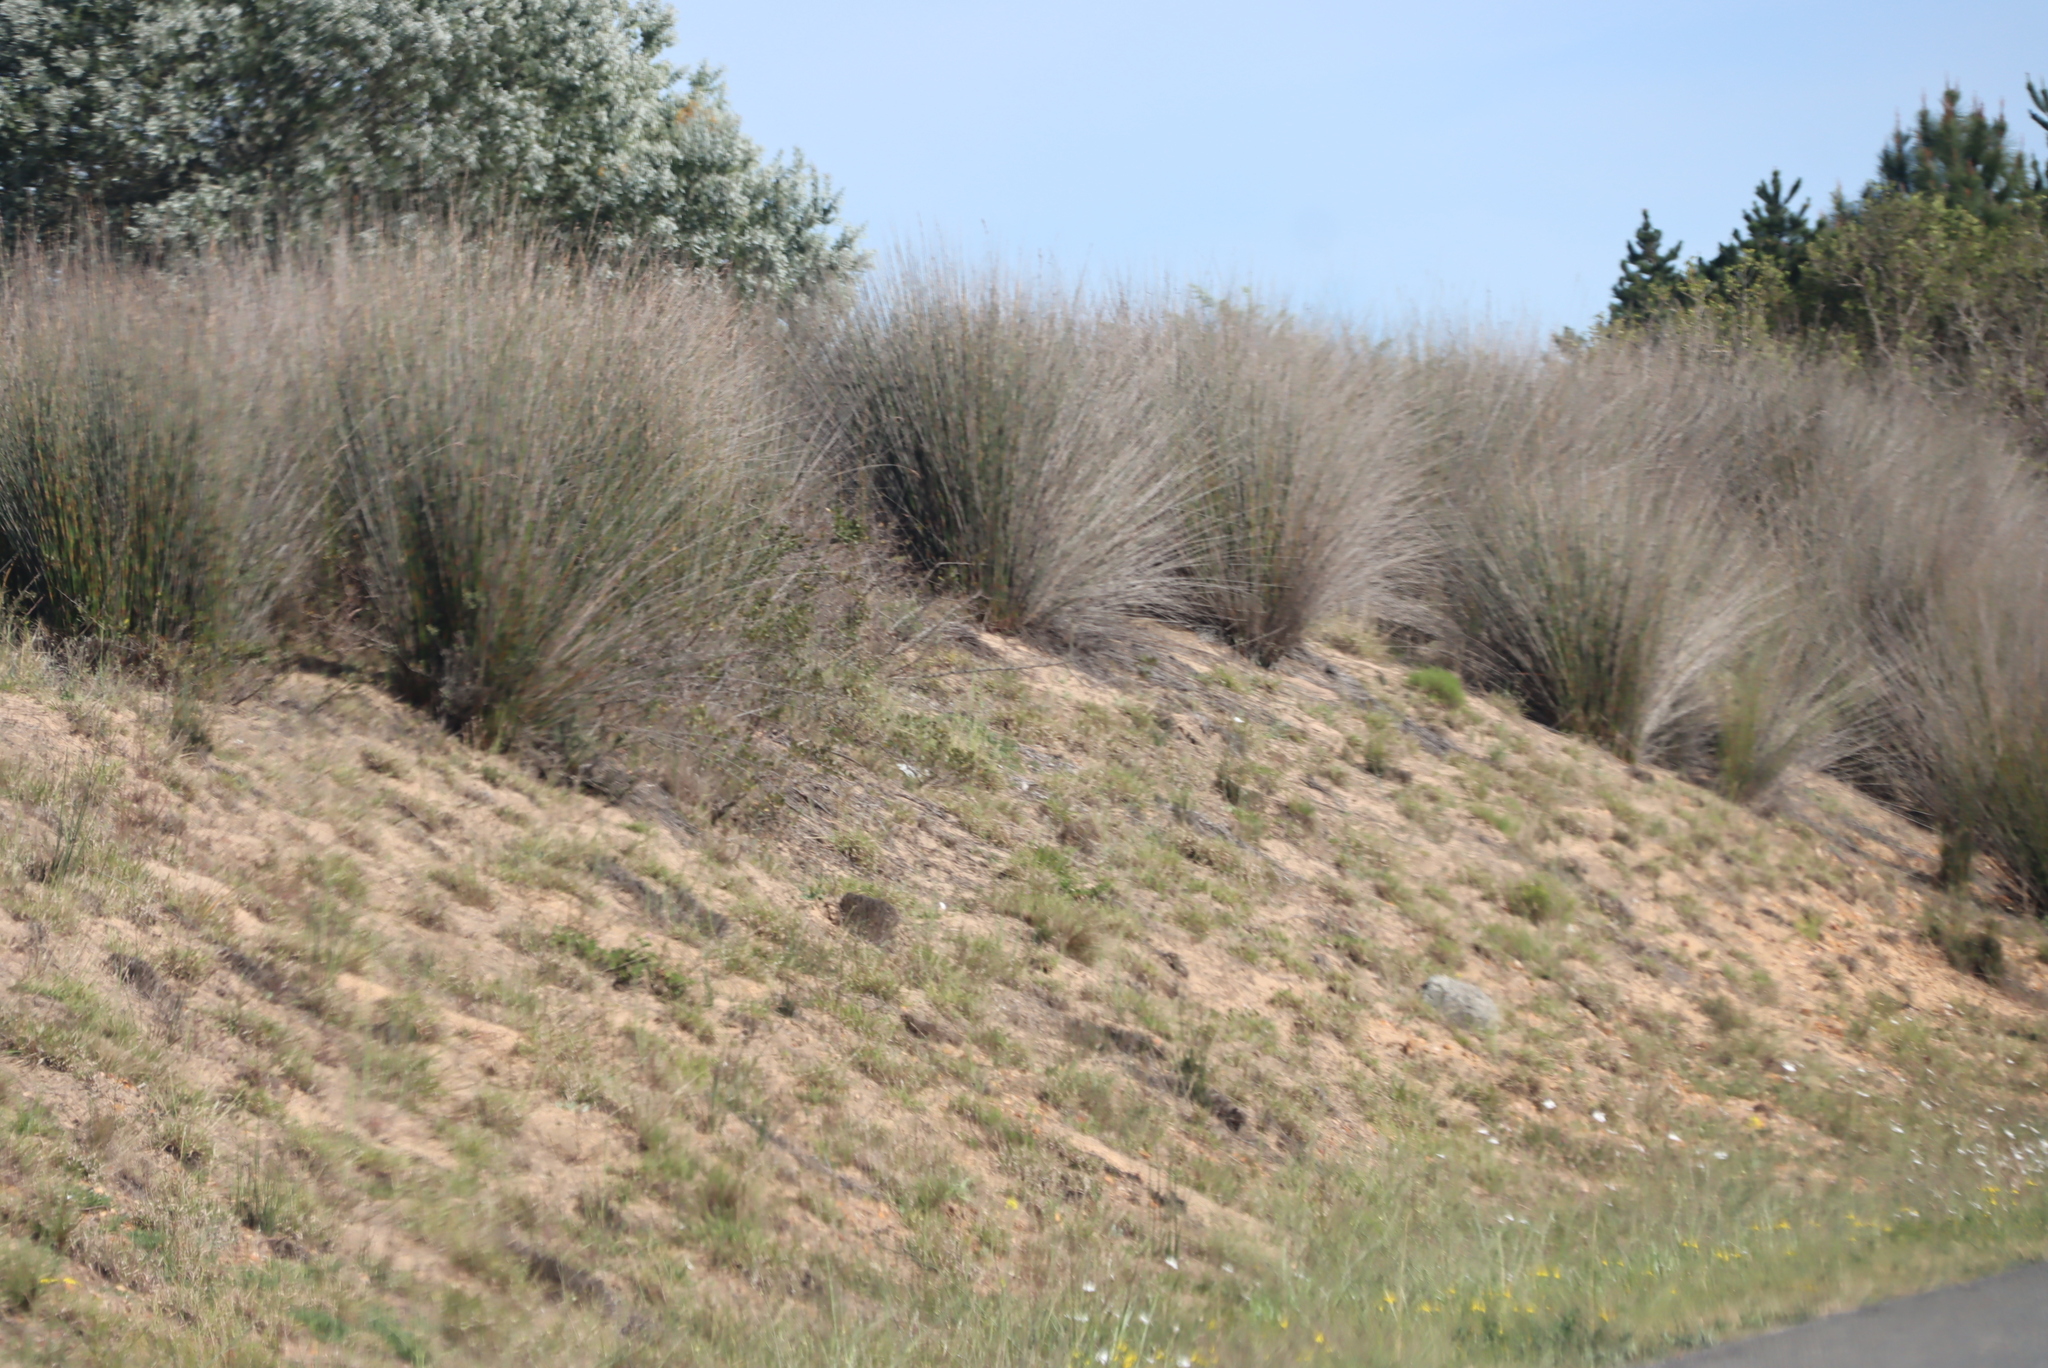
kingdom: Plantae
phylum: Tracheophyta
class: Liliopsida
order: Poales
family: Restionaceae
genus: Thamnochortus
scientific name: Thamnochortus insignis
